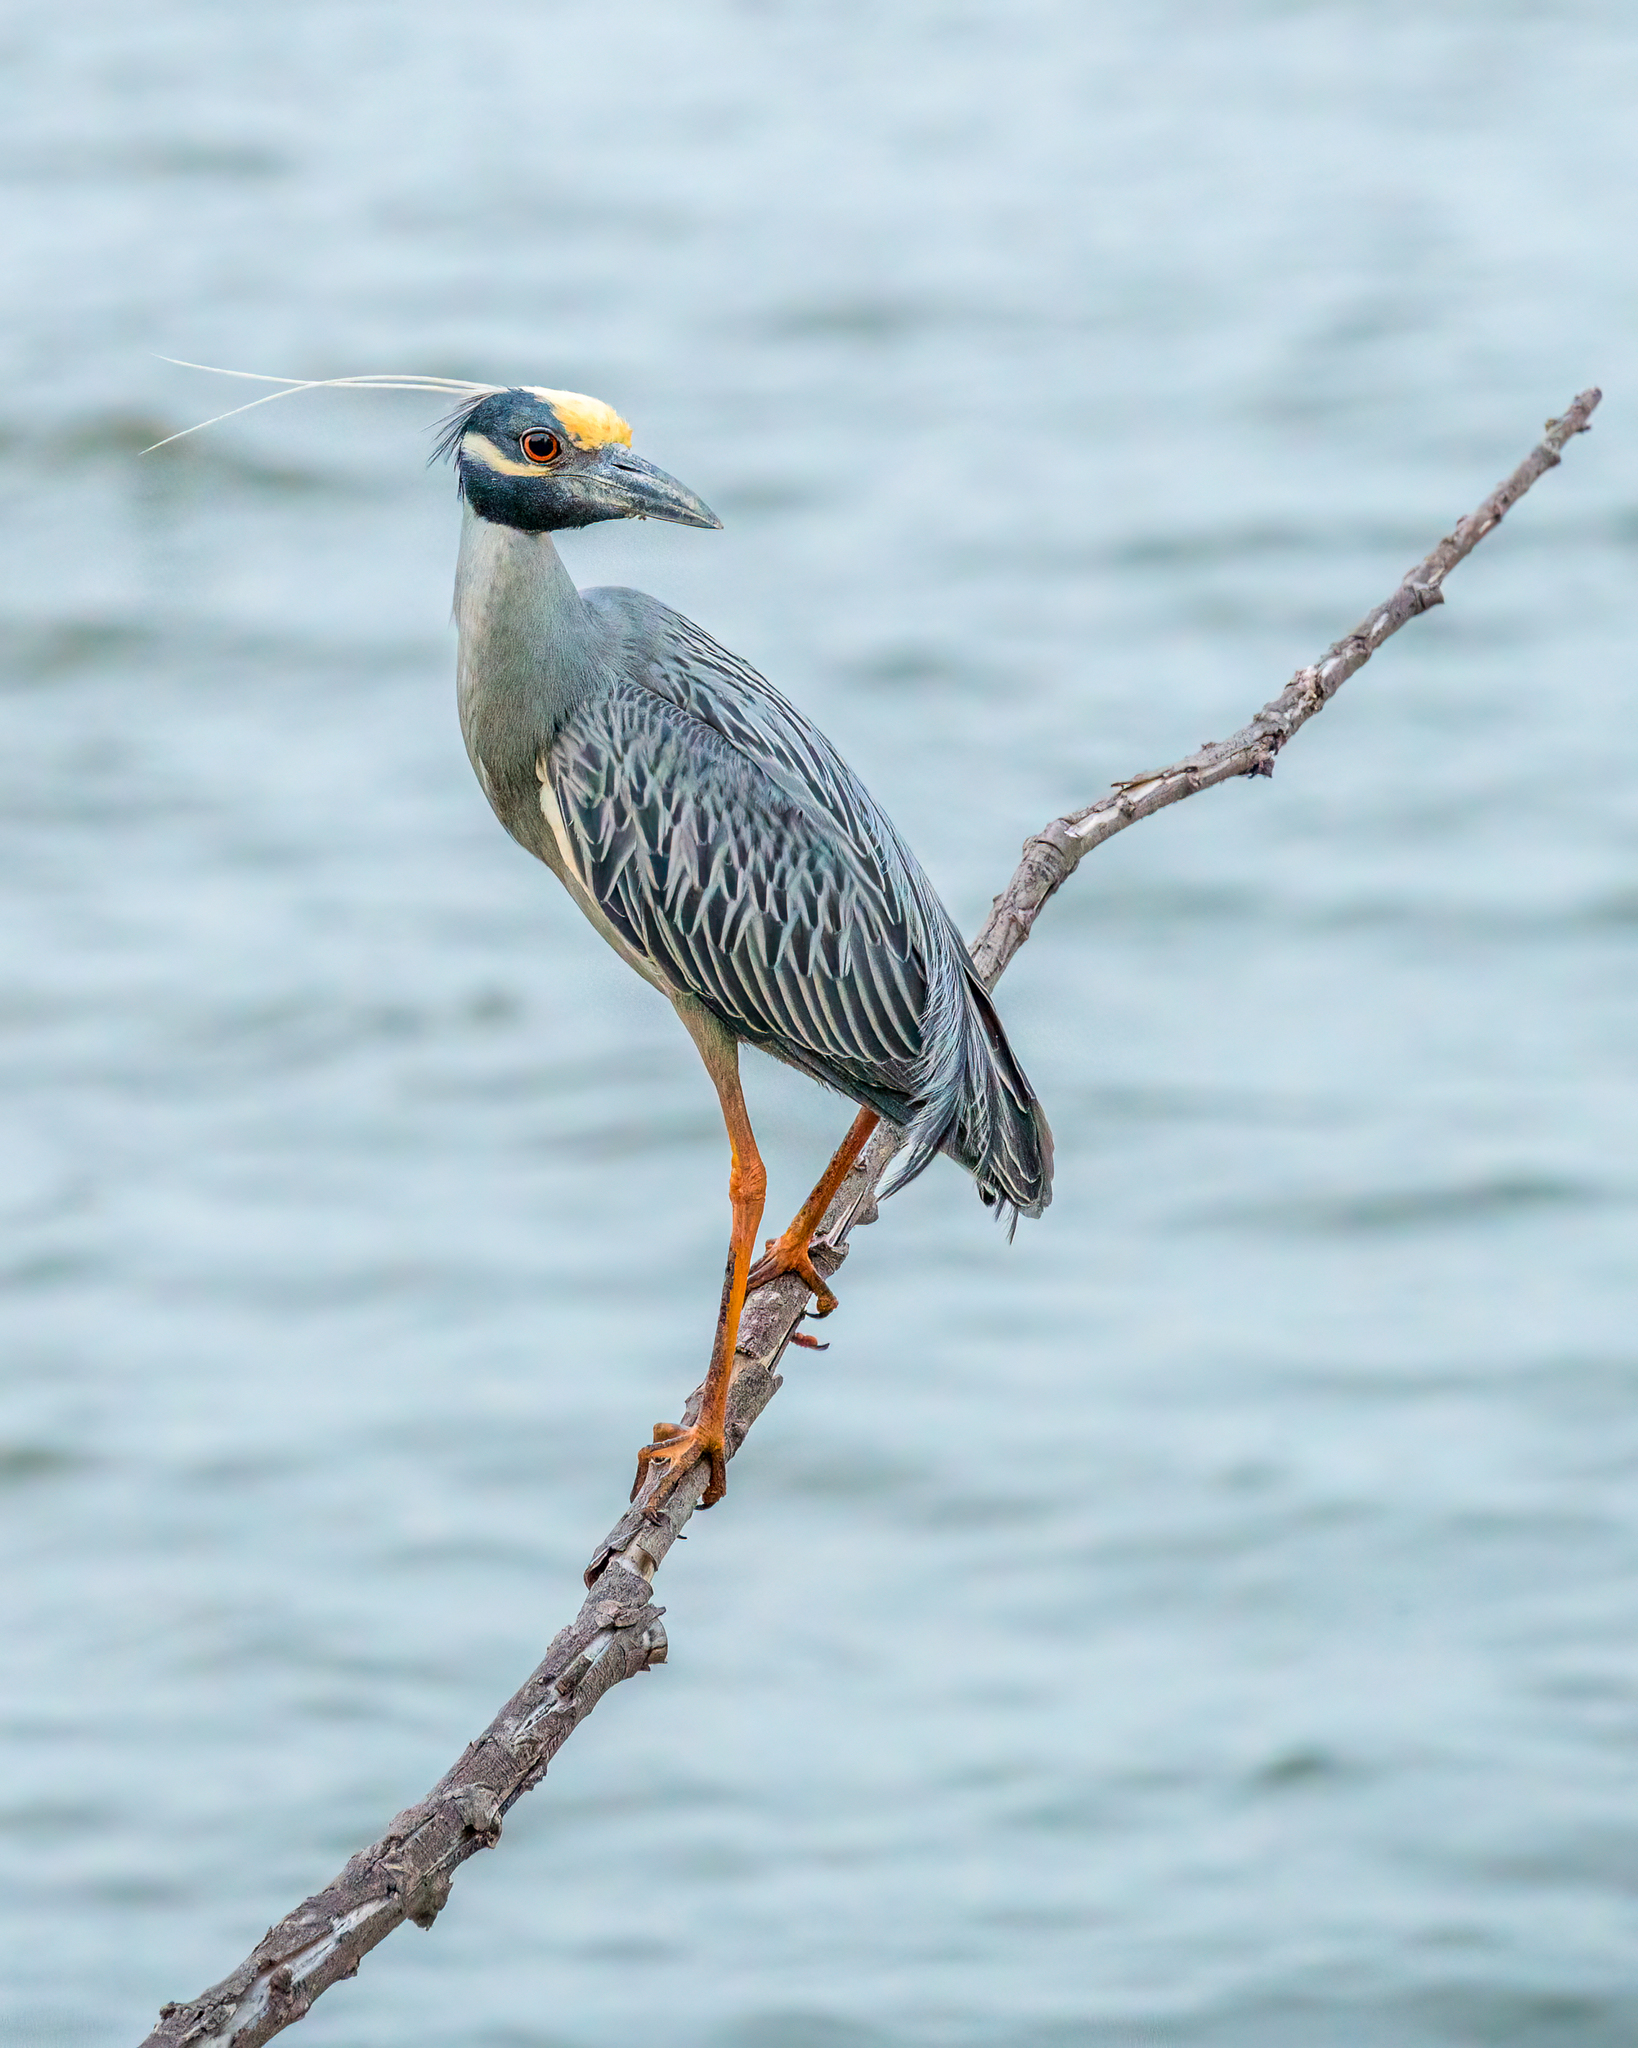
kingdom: Animalia
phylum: Chordata
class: Aves
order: Pelecaniformes
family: Ardeidae
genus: Nyctanassa
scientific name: Nyctanassa violacea
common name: Yellow-crowned night heron
